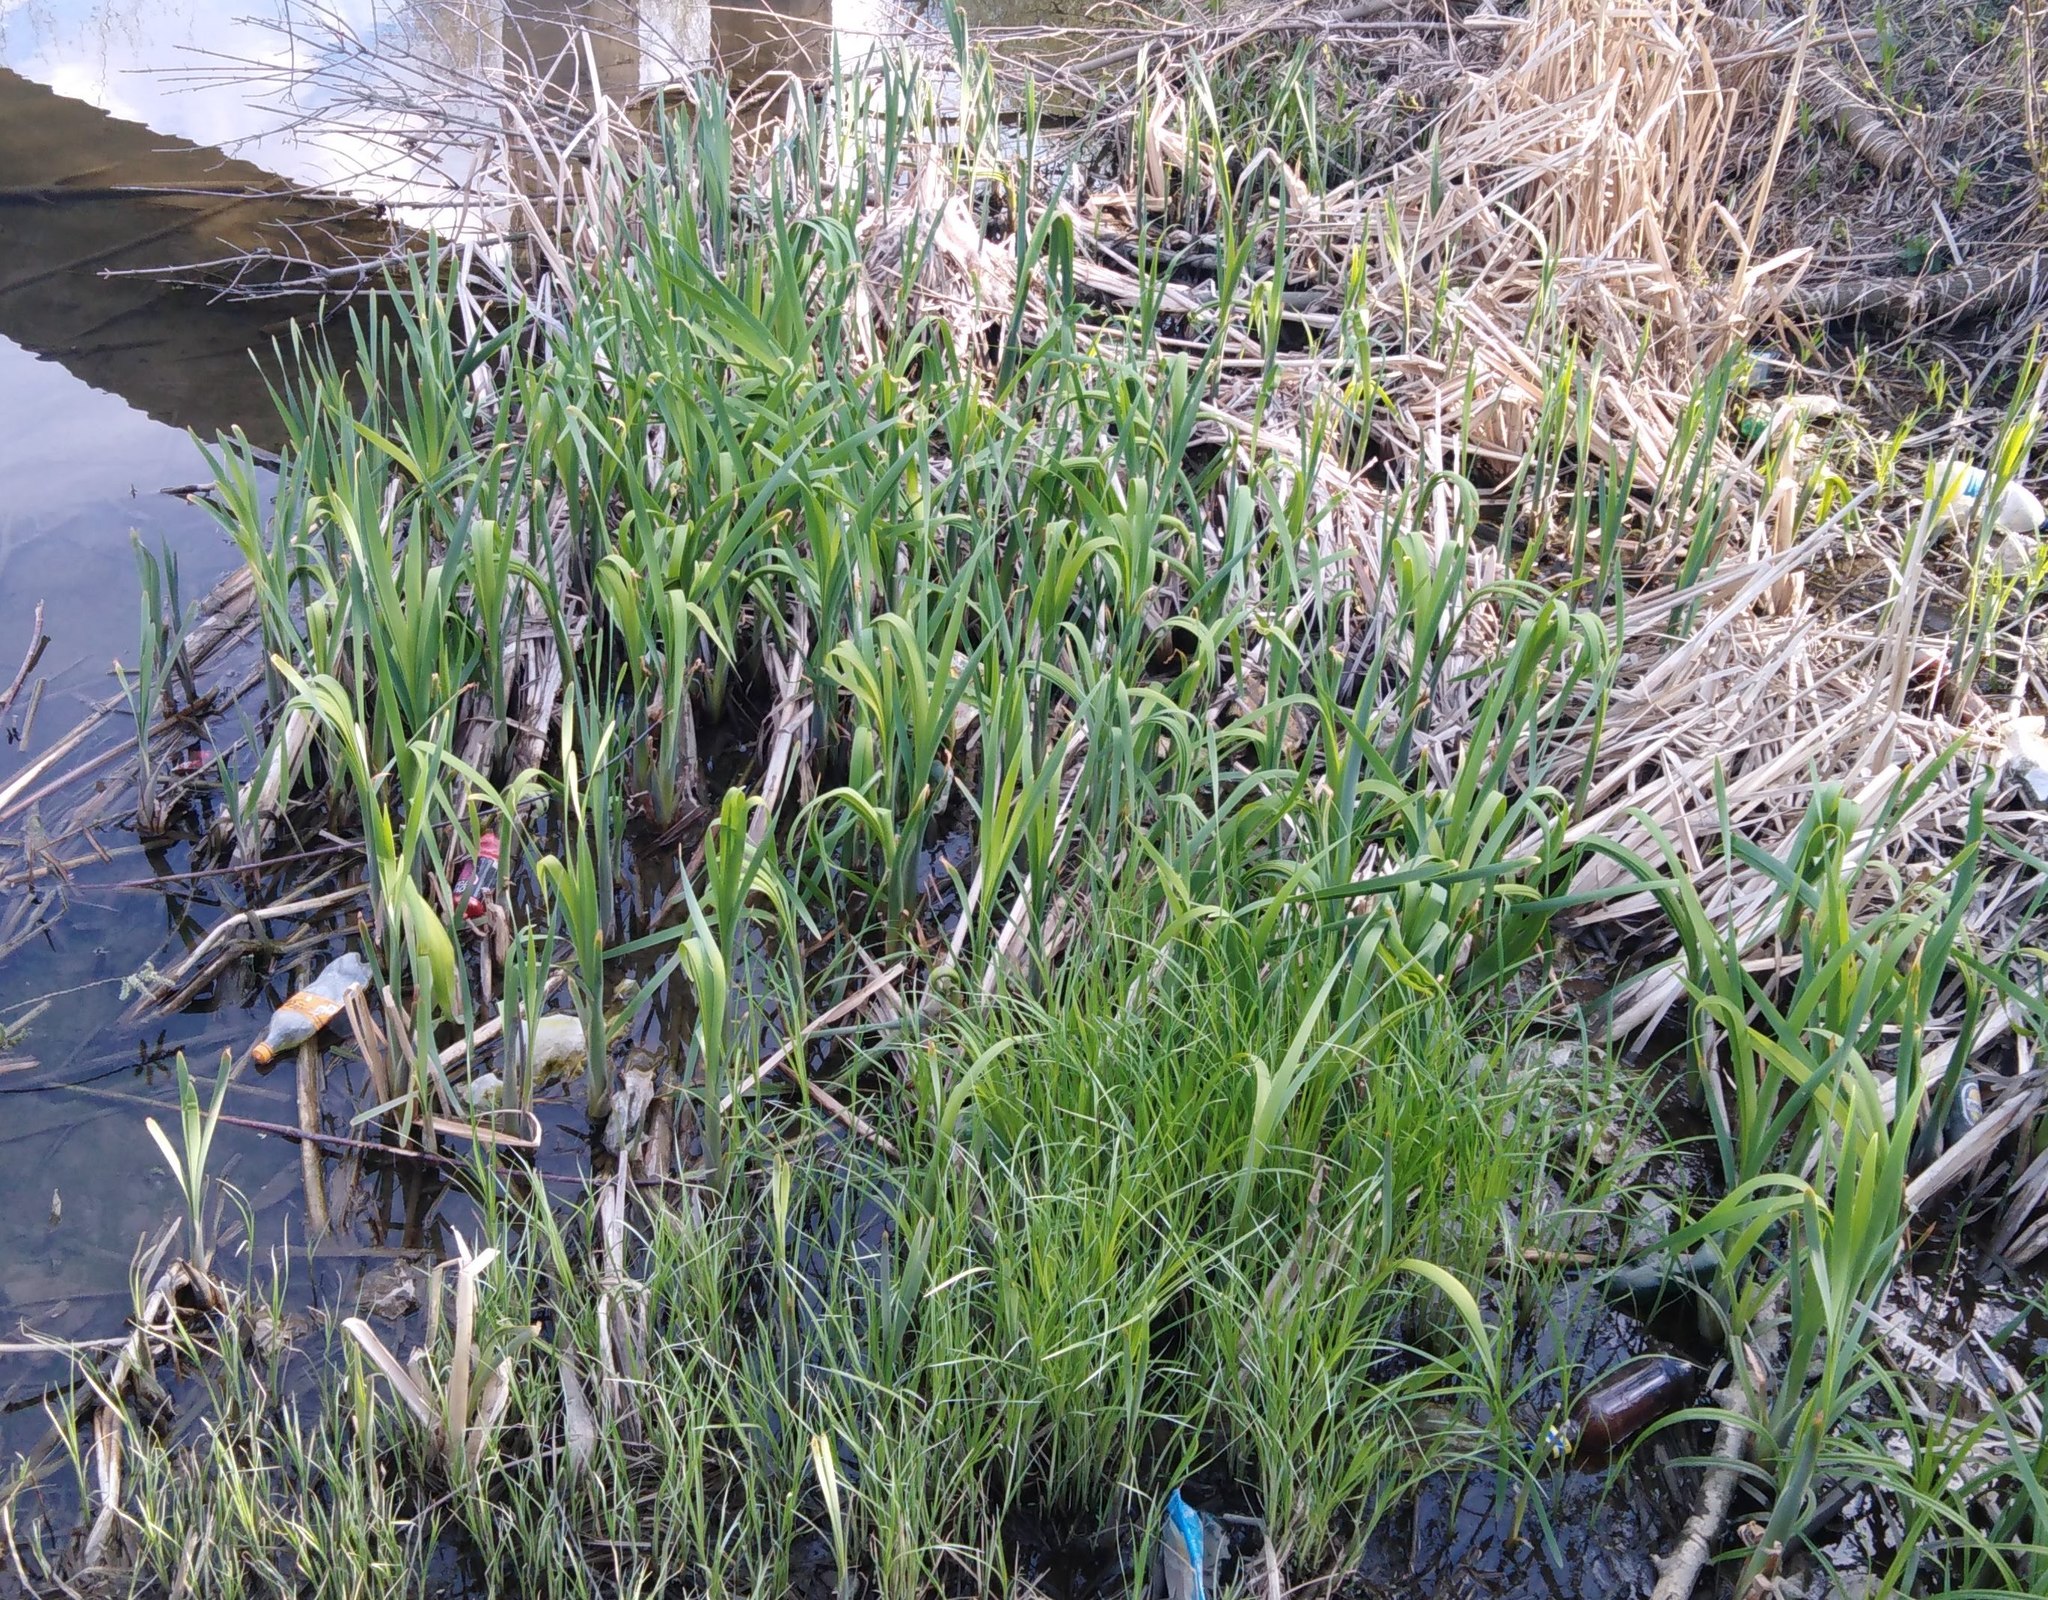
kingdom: Plantae
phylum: Tracheophyta
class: Liliopsida
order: Poales
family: Typhaceae
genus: Typha
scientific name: Typha latifolia
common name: Broadleaf cattail
